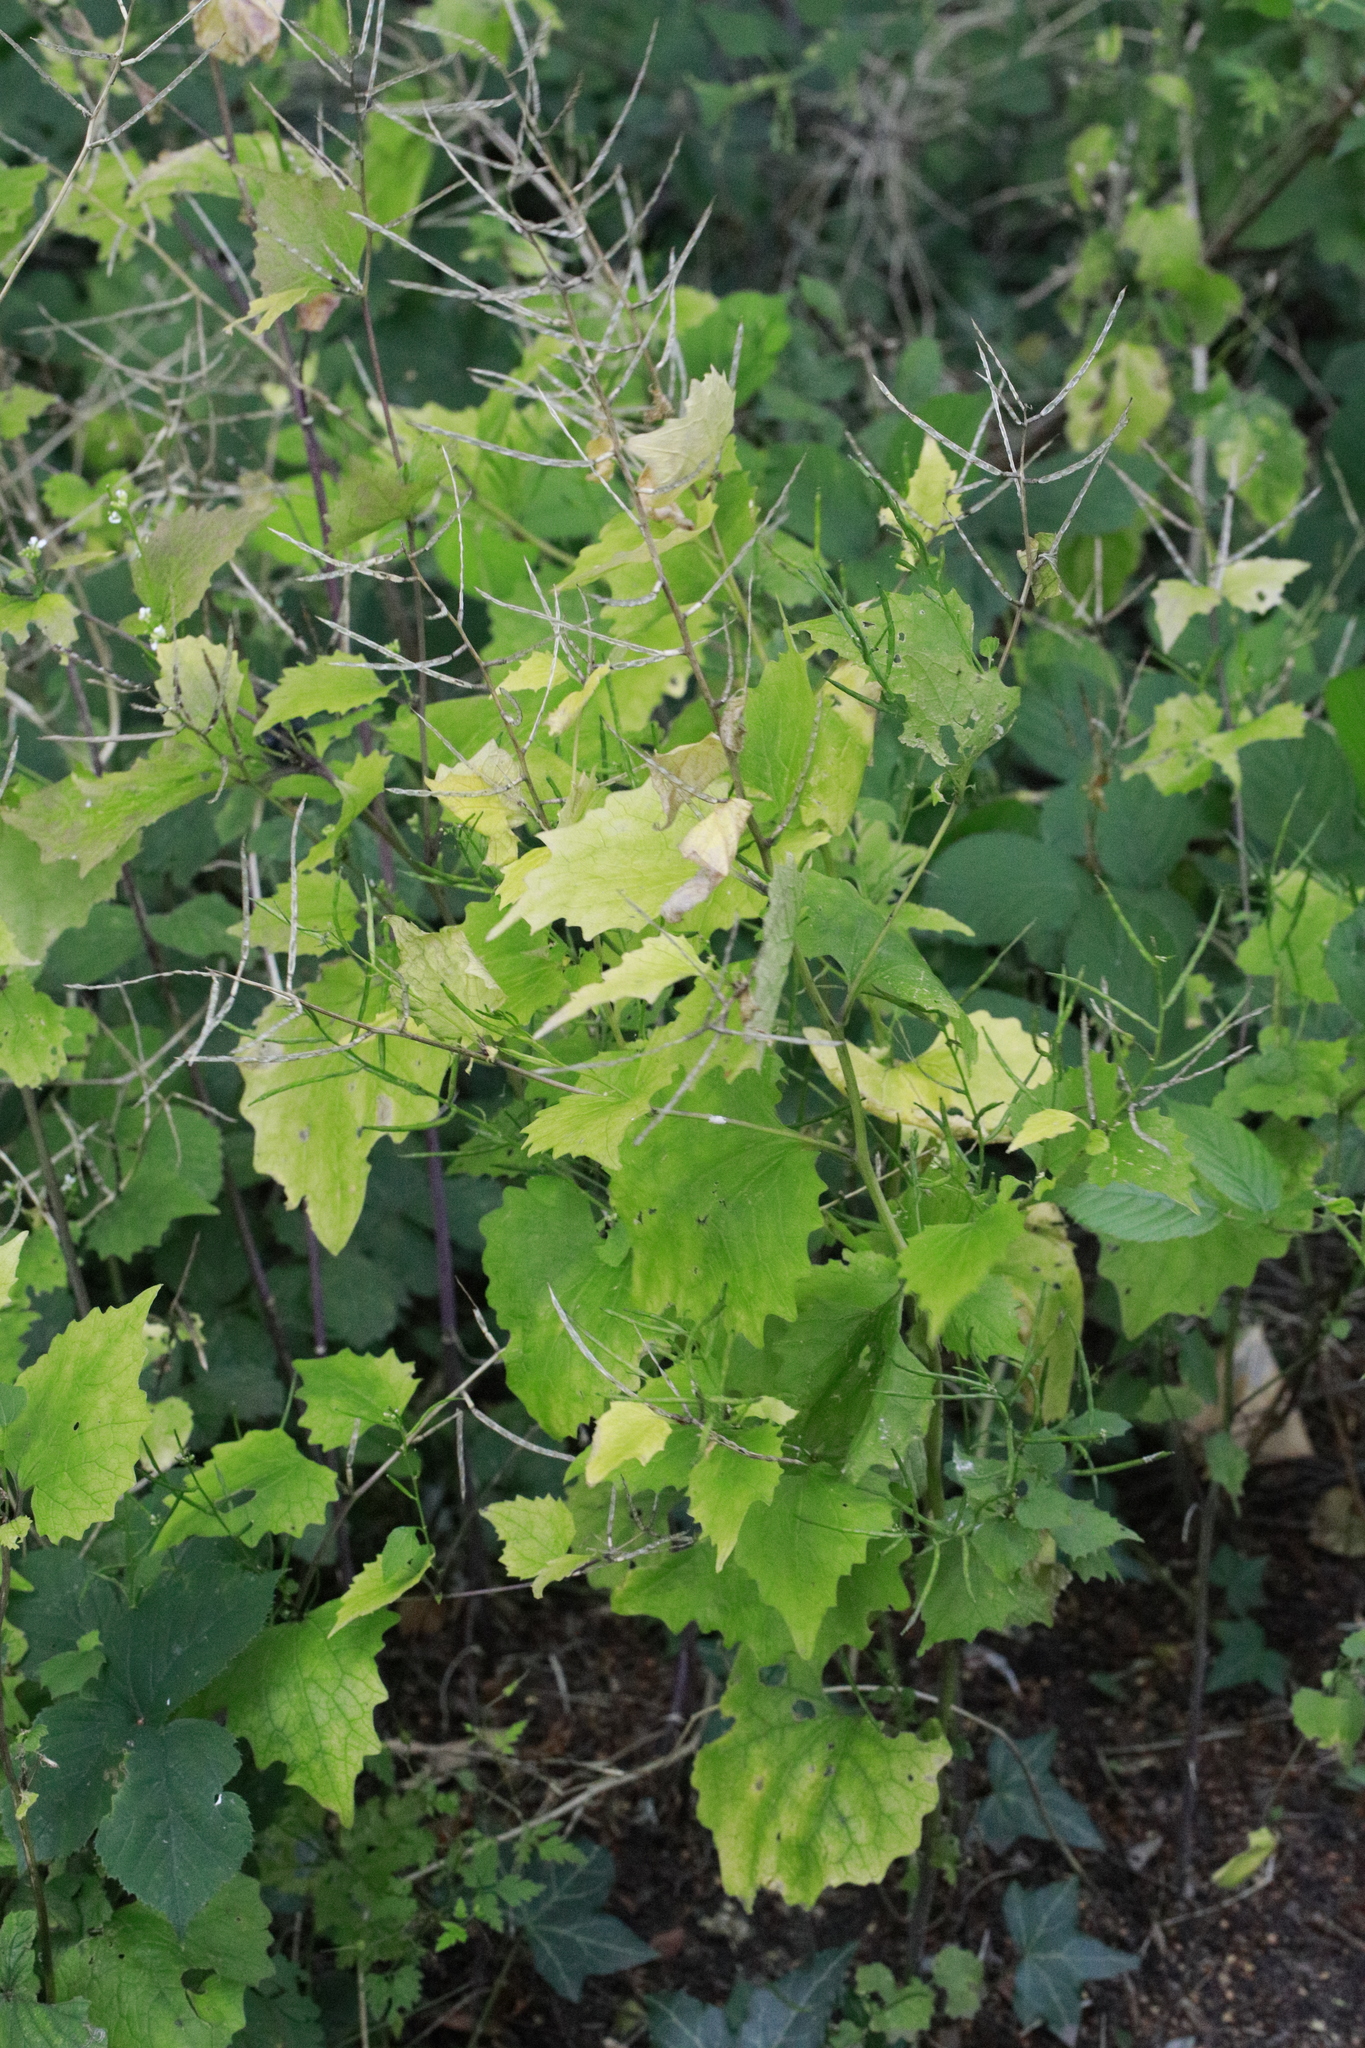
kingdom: Plantae
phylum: Tracheophyta
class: Magnoliopsida
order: Brassicales
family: Brassicaceae
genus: Alliaria
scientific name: Alliaria petiolata
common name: Garlic mustard
